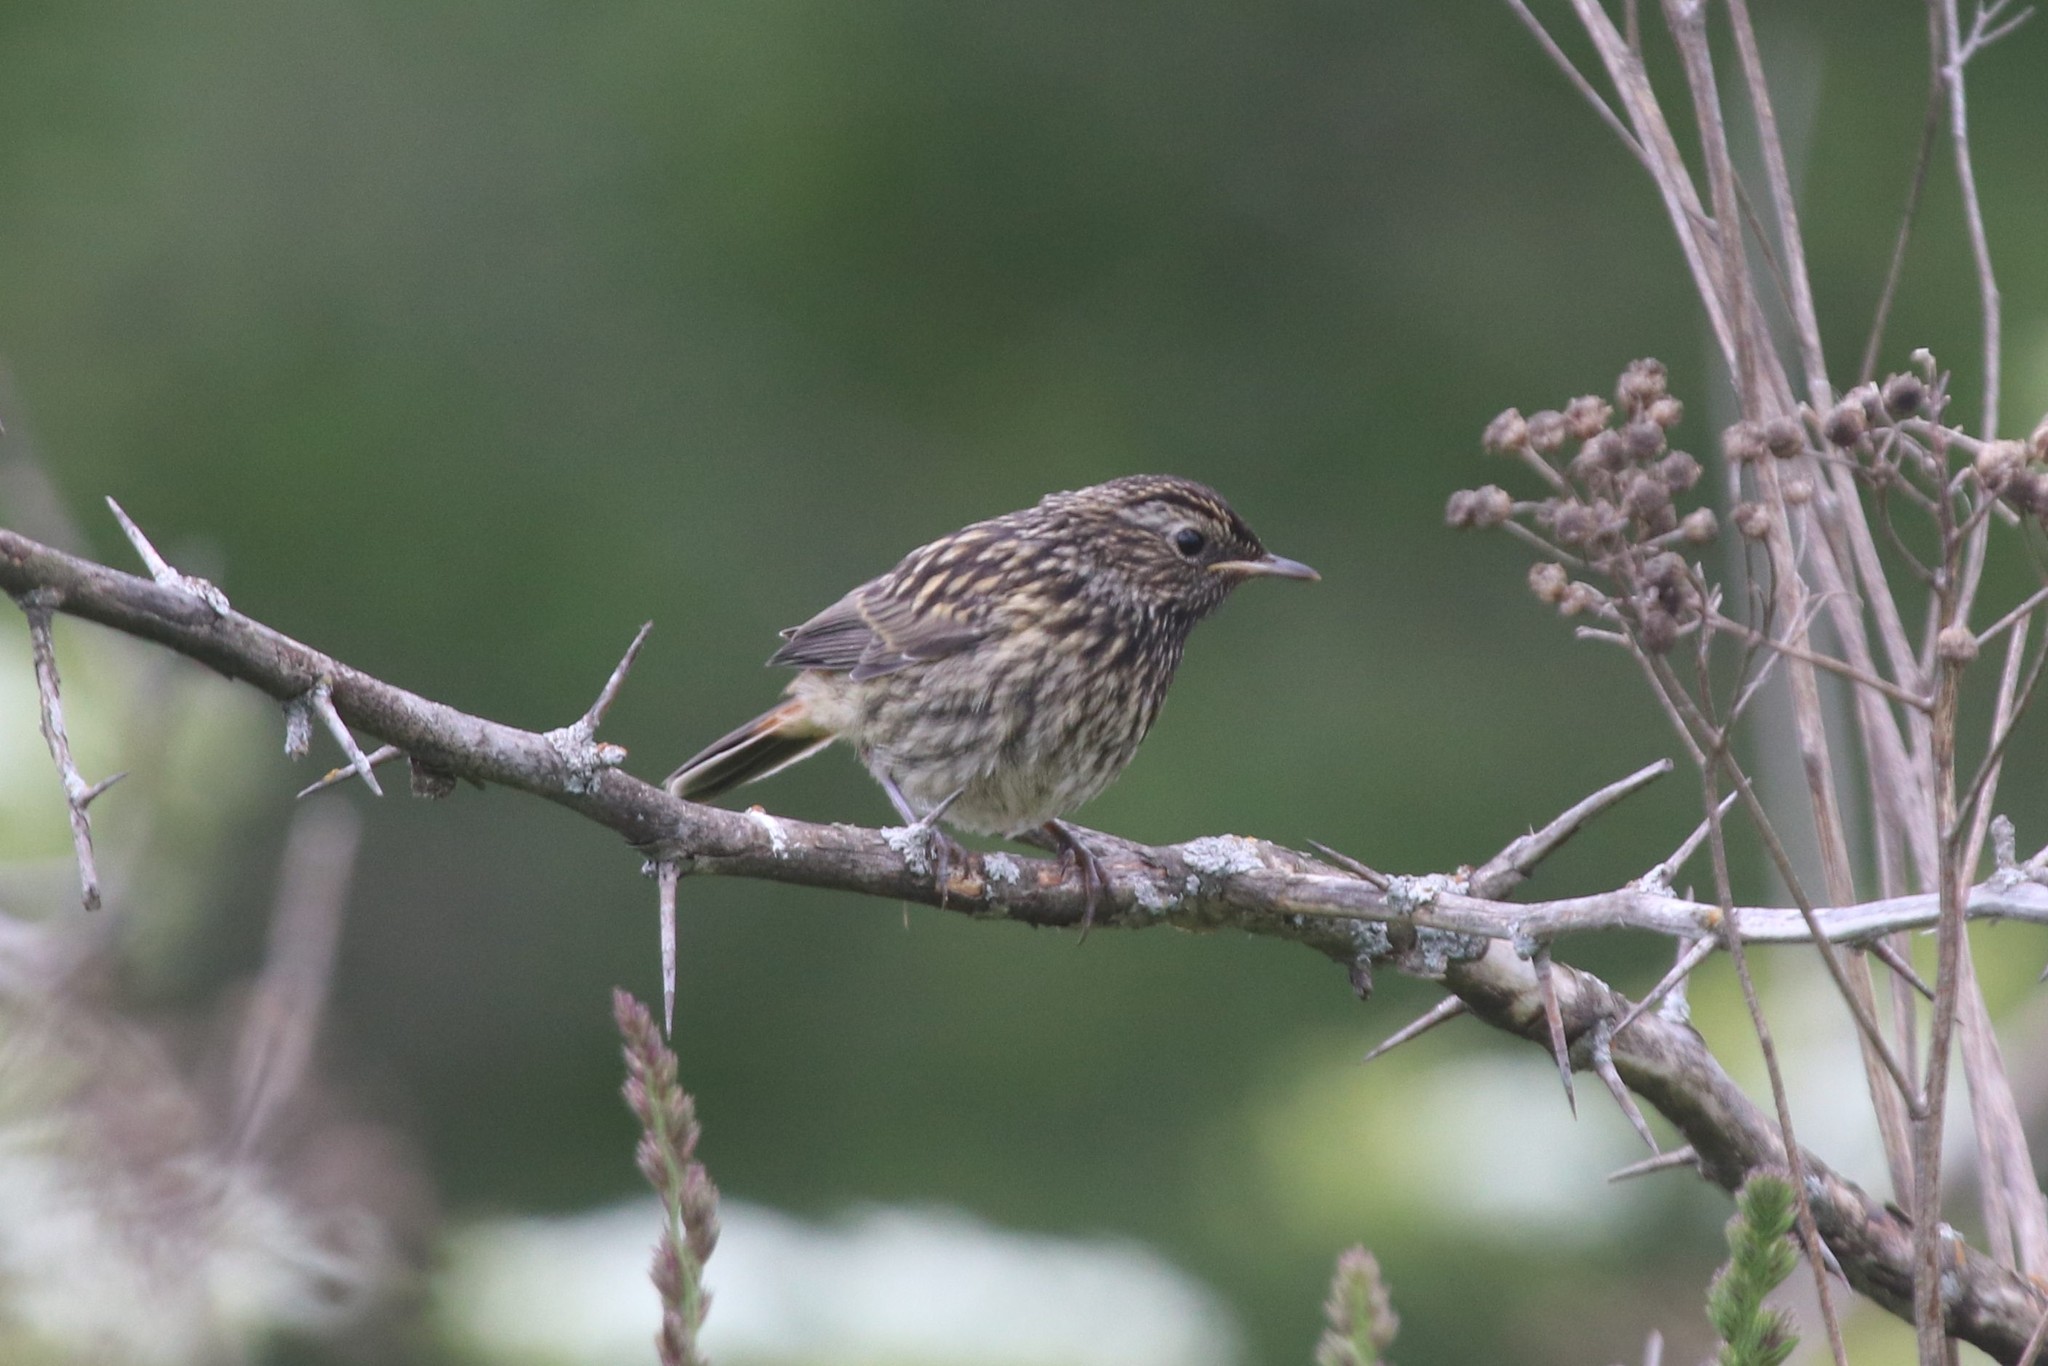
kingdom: Animalia
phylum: Chordata
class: Aves
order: Passeriformes
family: Muscicapidae
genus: Luscinia
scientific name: Luscinia svecica
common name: Bluethroat
